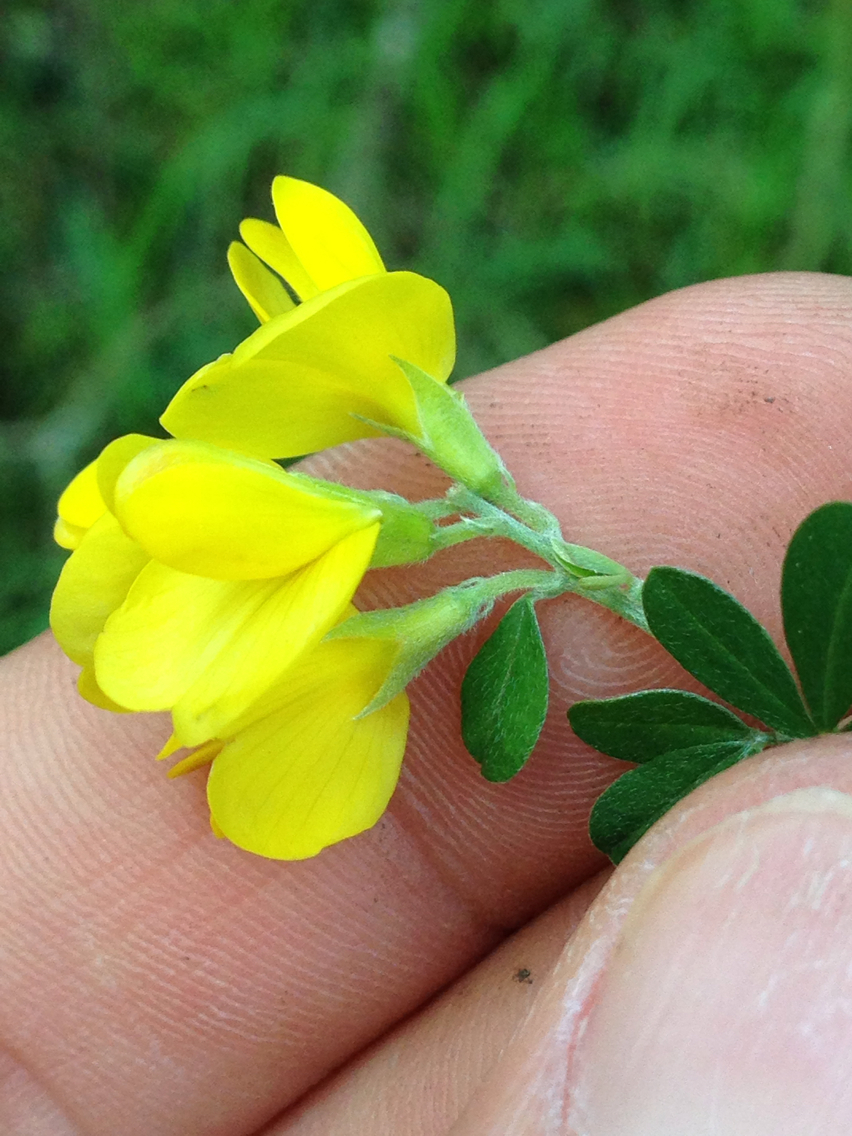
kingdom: Plantae
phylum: Tracheophyta
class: Magnoliopsida
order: Fabales
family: Fabaceae
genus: Genista
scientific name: Genista monspessulana
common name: Montpellier broom
